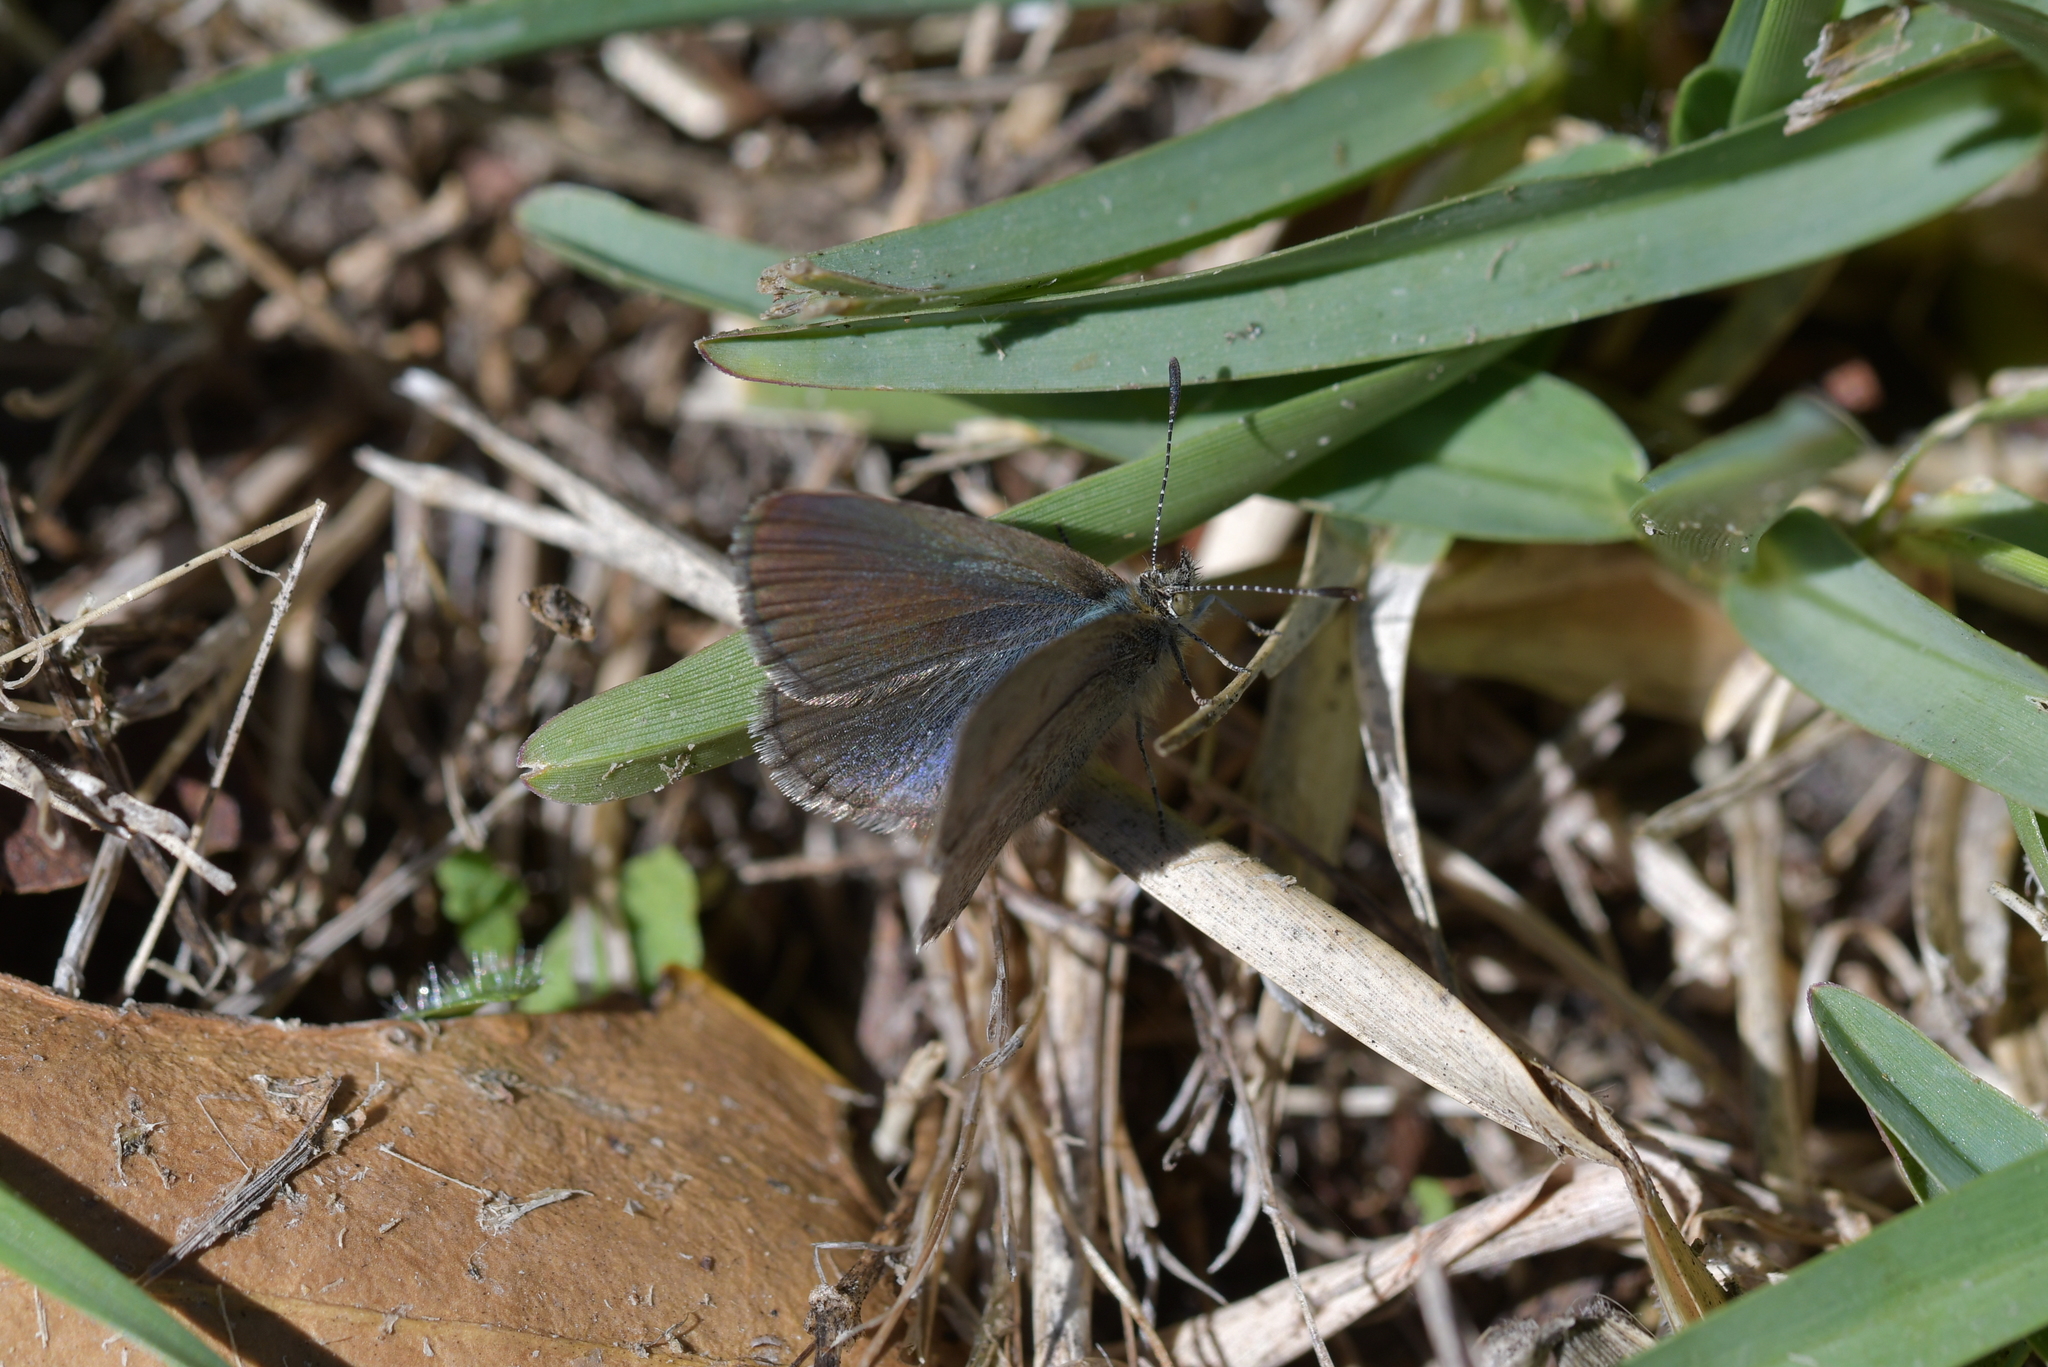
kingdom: Animalia
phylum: Arthropoda
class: Insecta
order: Lepidoptera
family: Lycaenidae
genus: Zizina
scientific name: Zizina labradus
